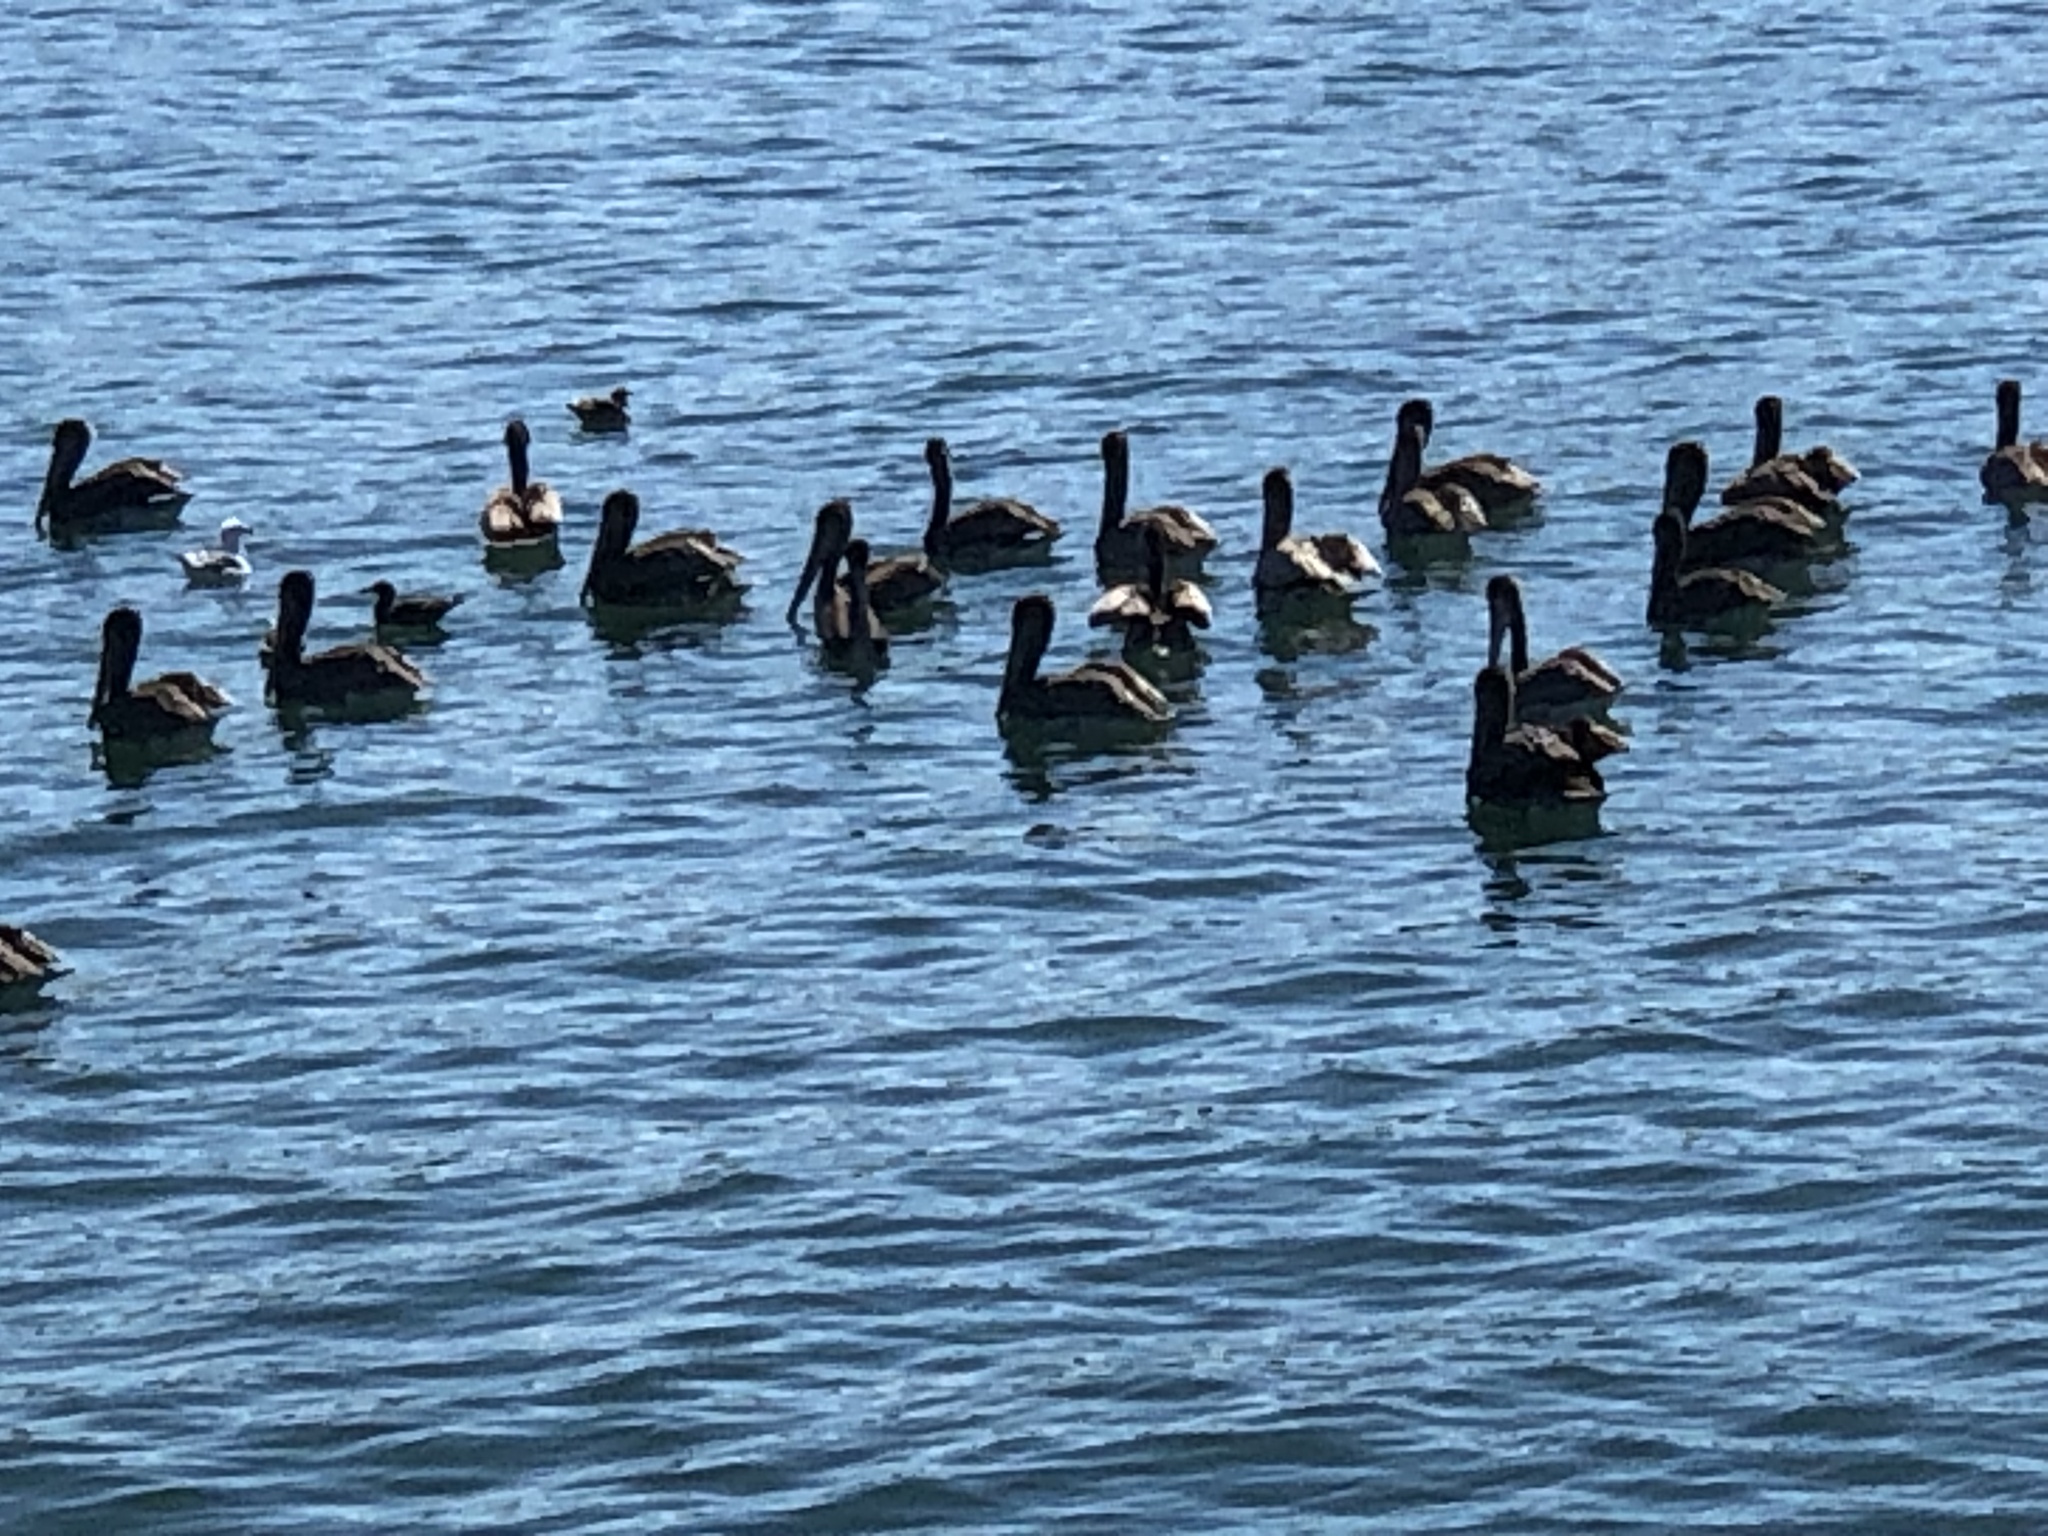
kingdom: Animalia
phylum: Chordata
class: Aves
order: Pelecaniformes
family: Pelecanidae
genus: Pelecanus
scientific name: Pelecanus occidentalis
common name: Brown pelican
